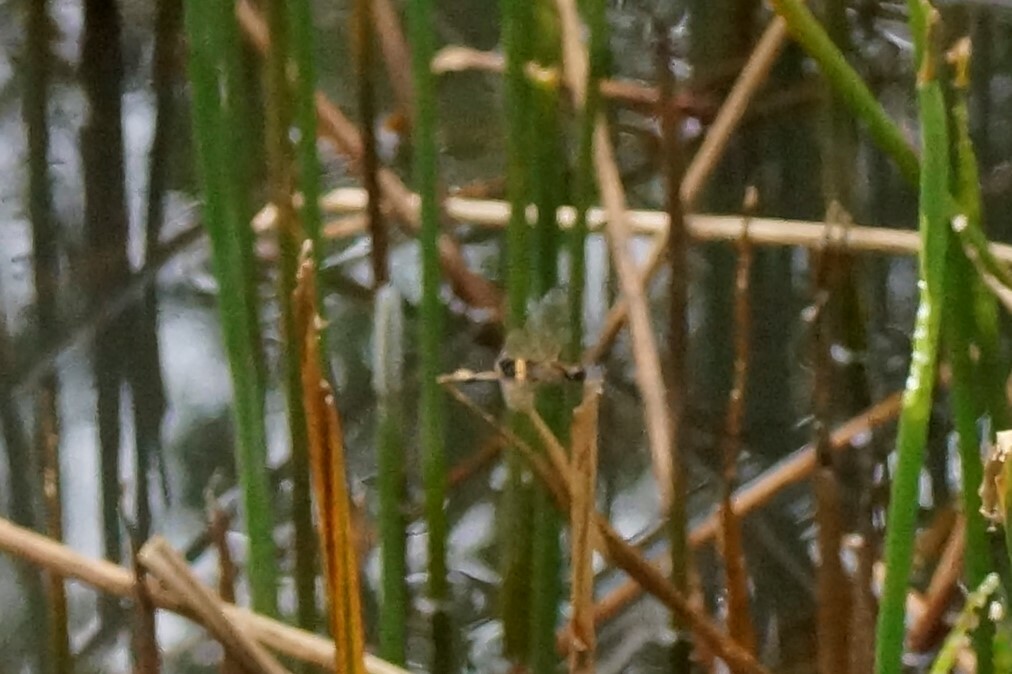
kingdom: Animalia
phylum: Arthropoda
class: Insecta
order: Odonata
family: Libellulidae
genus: Rhyothemis
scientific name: Rhyothemis phyllis
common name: Yellow-barred flutterer
